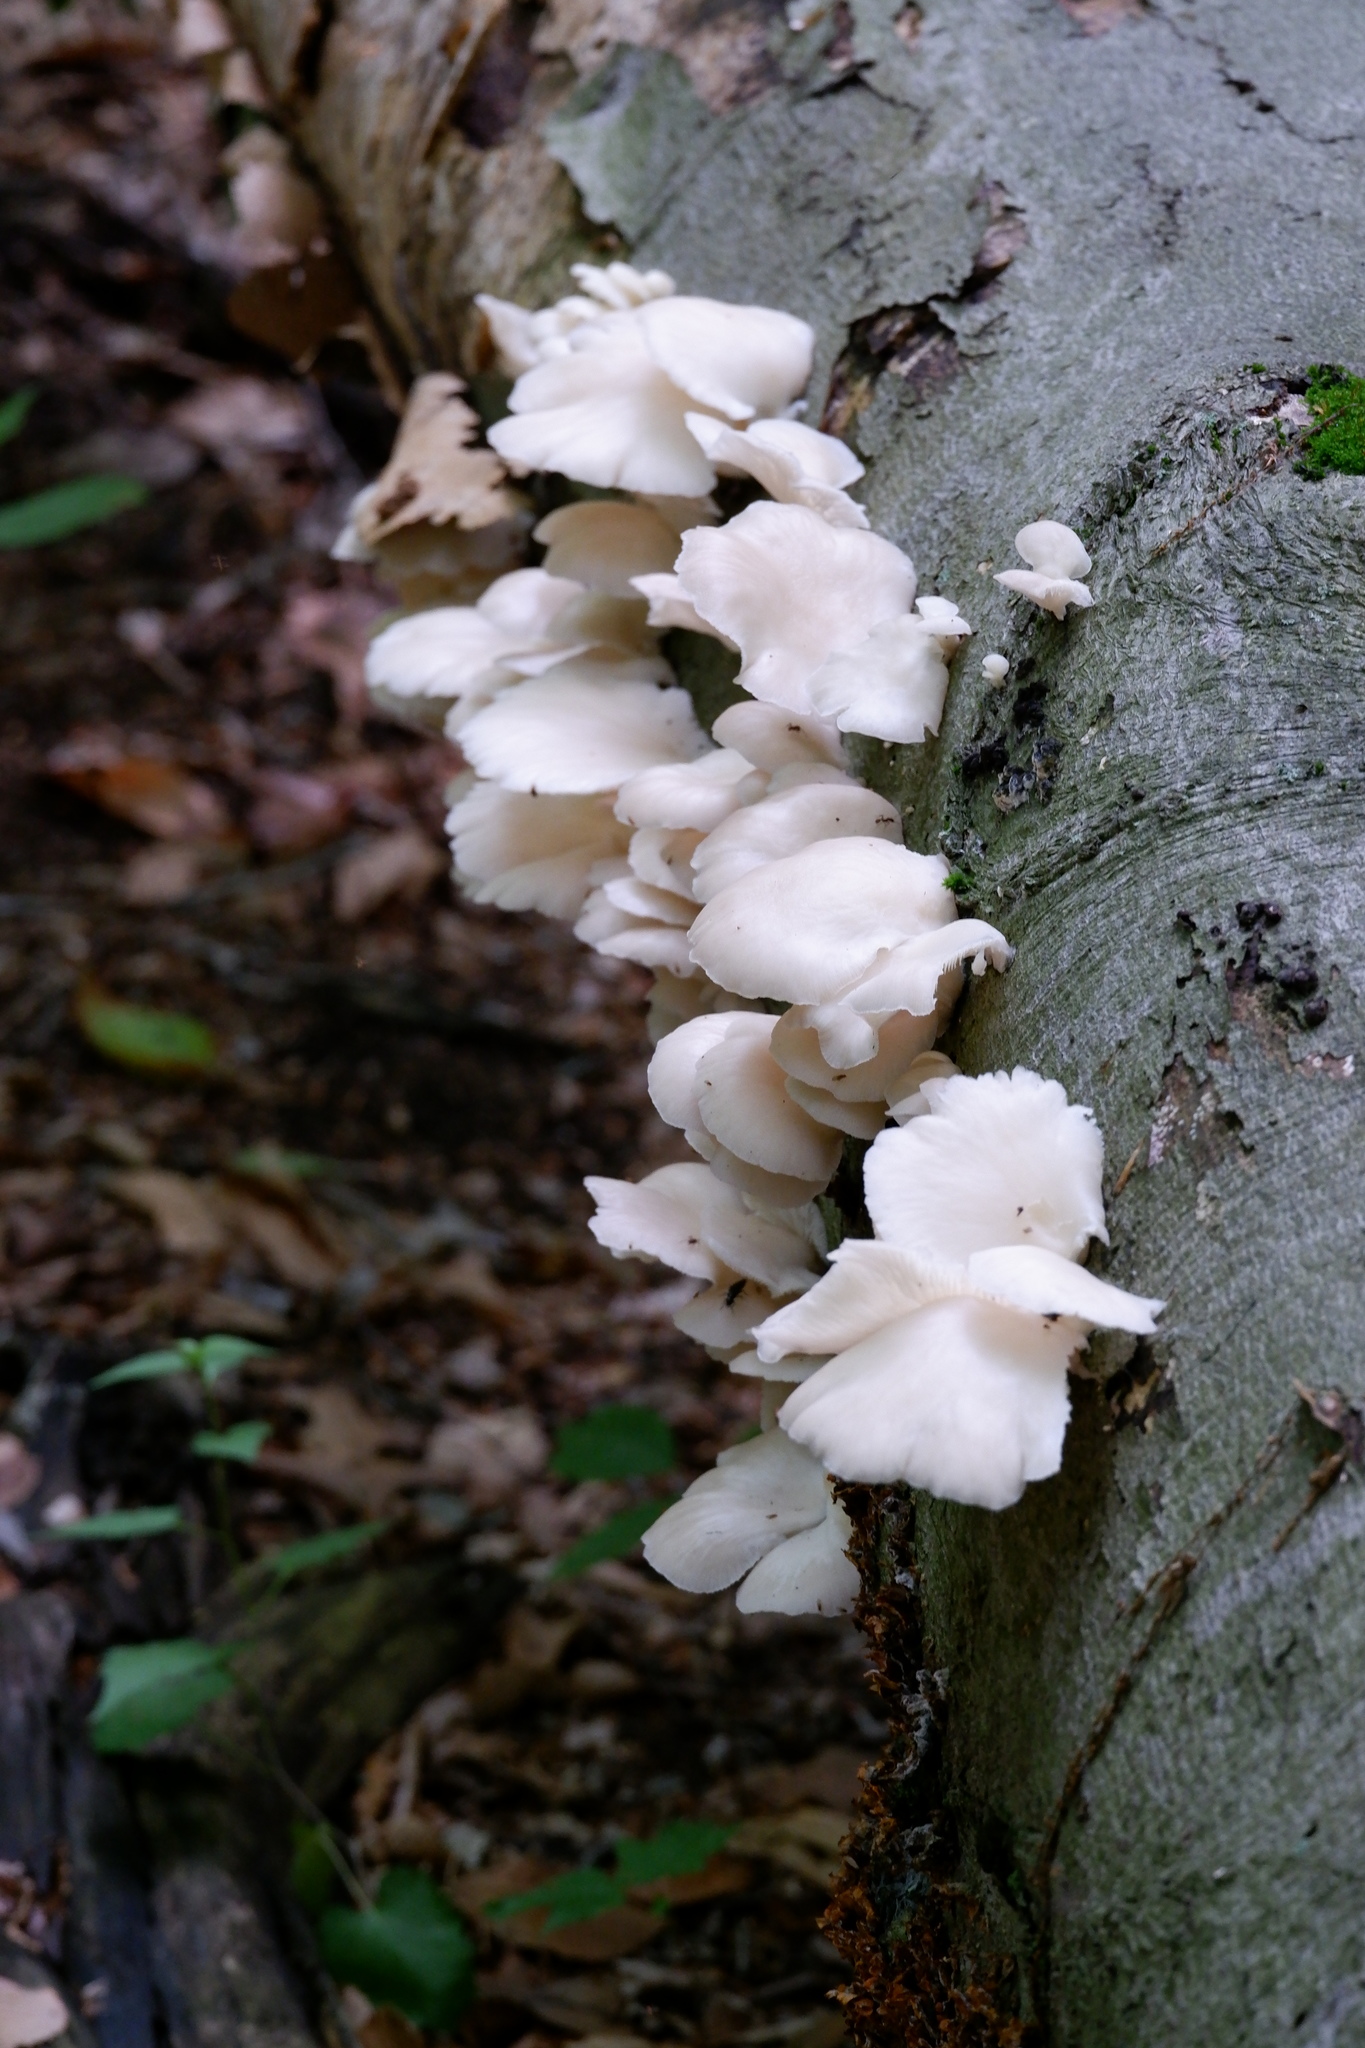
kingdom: Fungi
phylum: Basidiomycota
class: Agaricomycetes
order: Agaricales
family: Pleurotaceae
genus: Pleurotus
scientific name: Pleurotus pulmonarius
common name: Pale oyster
